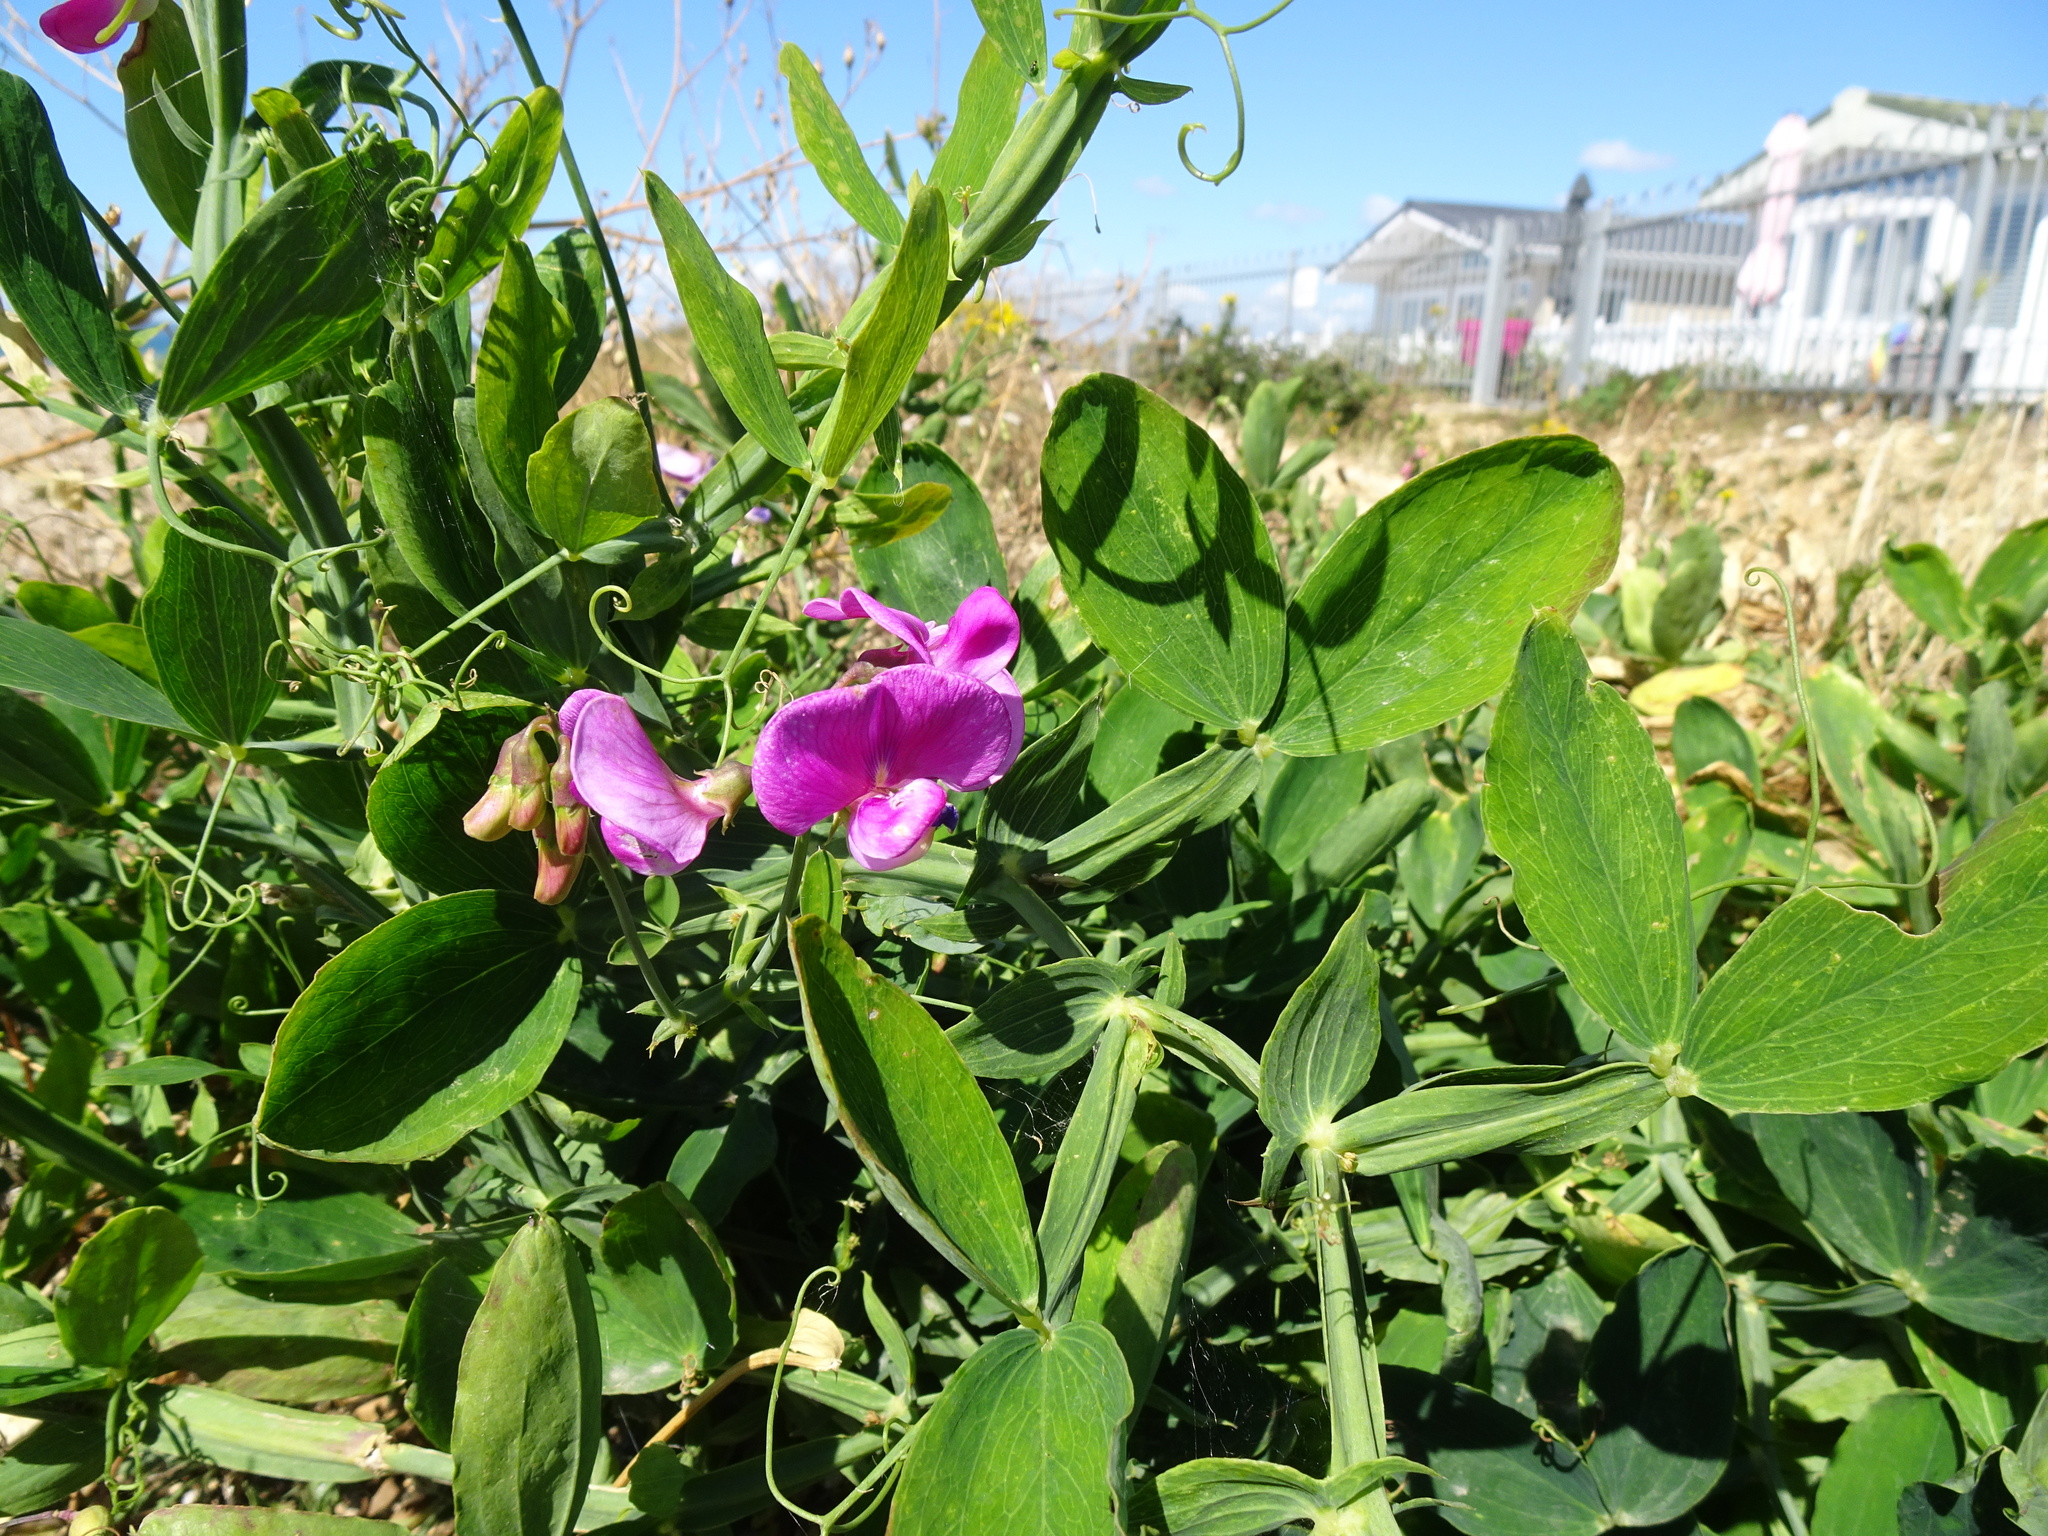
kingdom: Plantae
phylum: Tracheophyta
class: Magnoliopsida
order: Fabales
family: Fabaceae
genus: Lathyrus
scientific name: Lathyrus latifolius
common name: Perennial pea
